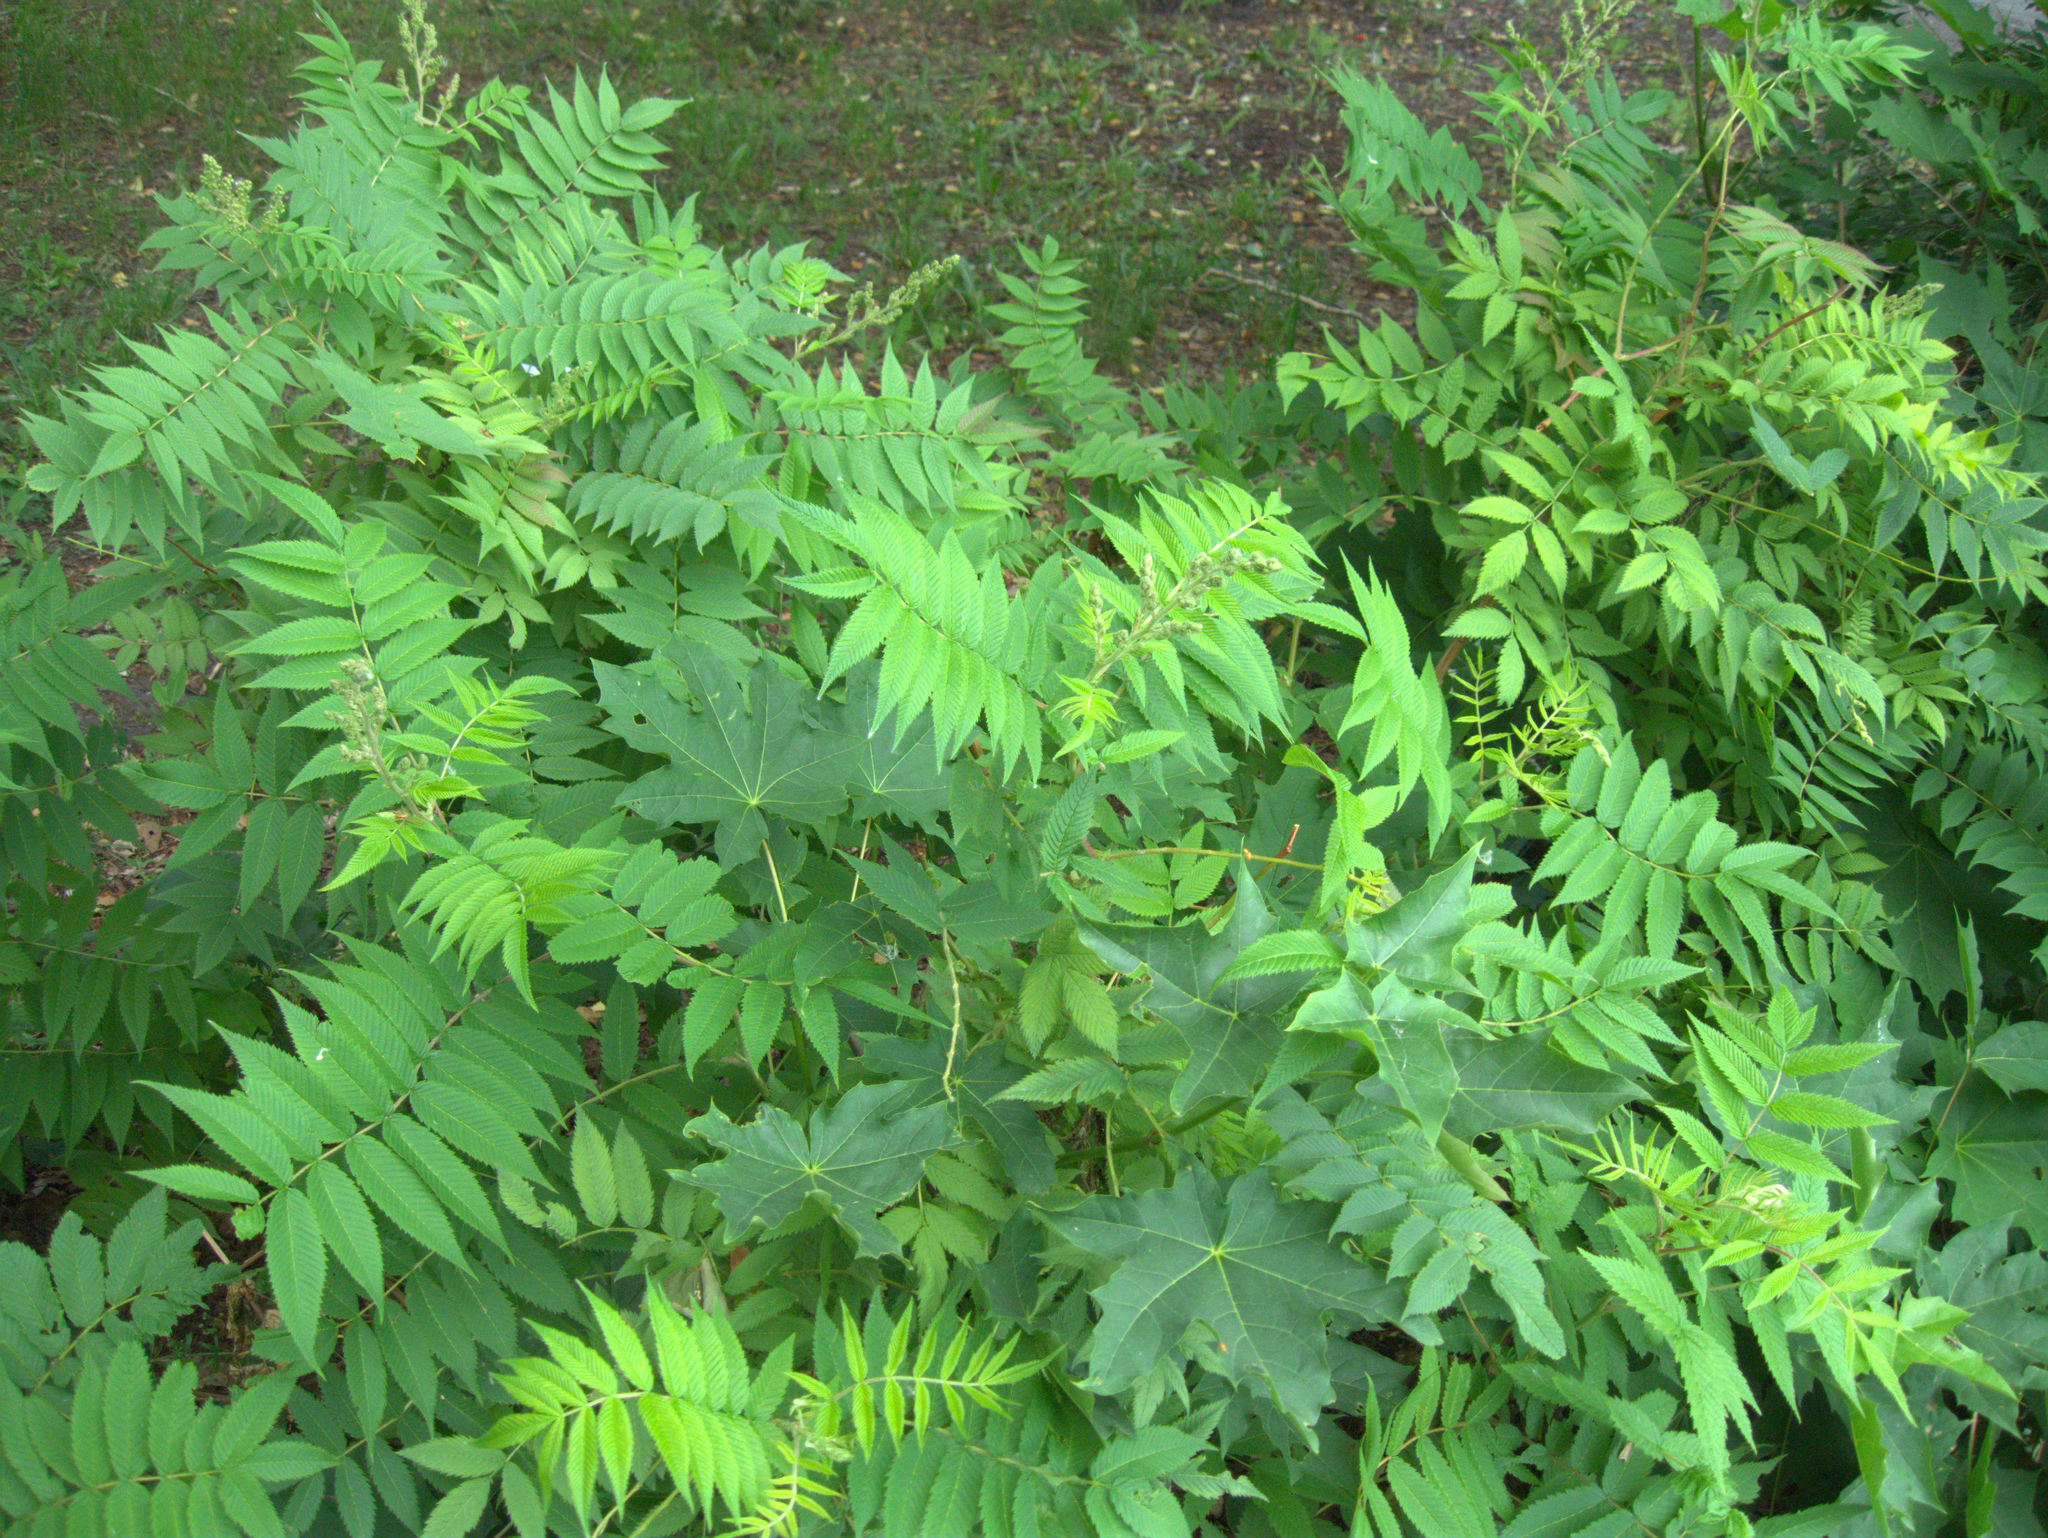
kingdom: Plantae
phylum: Tracheophyta
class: Magnoliopsida
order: Sapindales
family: Sapindaceae
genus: Acer
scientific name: Acer platanoides
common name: Norway maple
